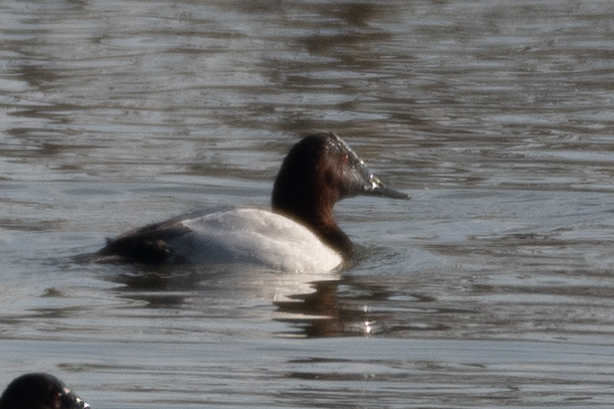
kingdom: Animalia
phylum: Chordata
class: Aves
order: Anseriformes
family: Anatidae
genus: Aythya
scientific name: Aythya valisineria
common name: Canvasback
